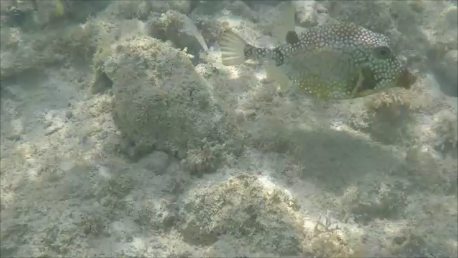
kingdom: Animalia
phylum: Chordata
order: Tetraodontiformes
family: Ostraciidae
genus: Lactophrys
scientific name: Lactophrys triqueter
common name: Smooth trunkfish
